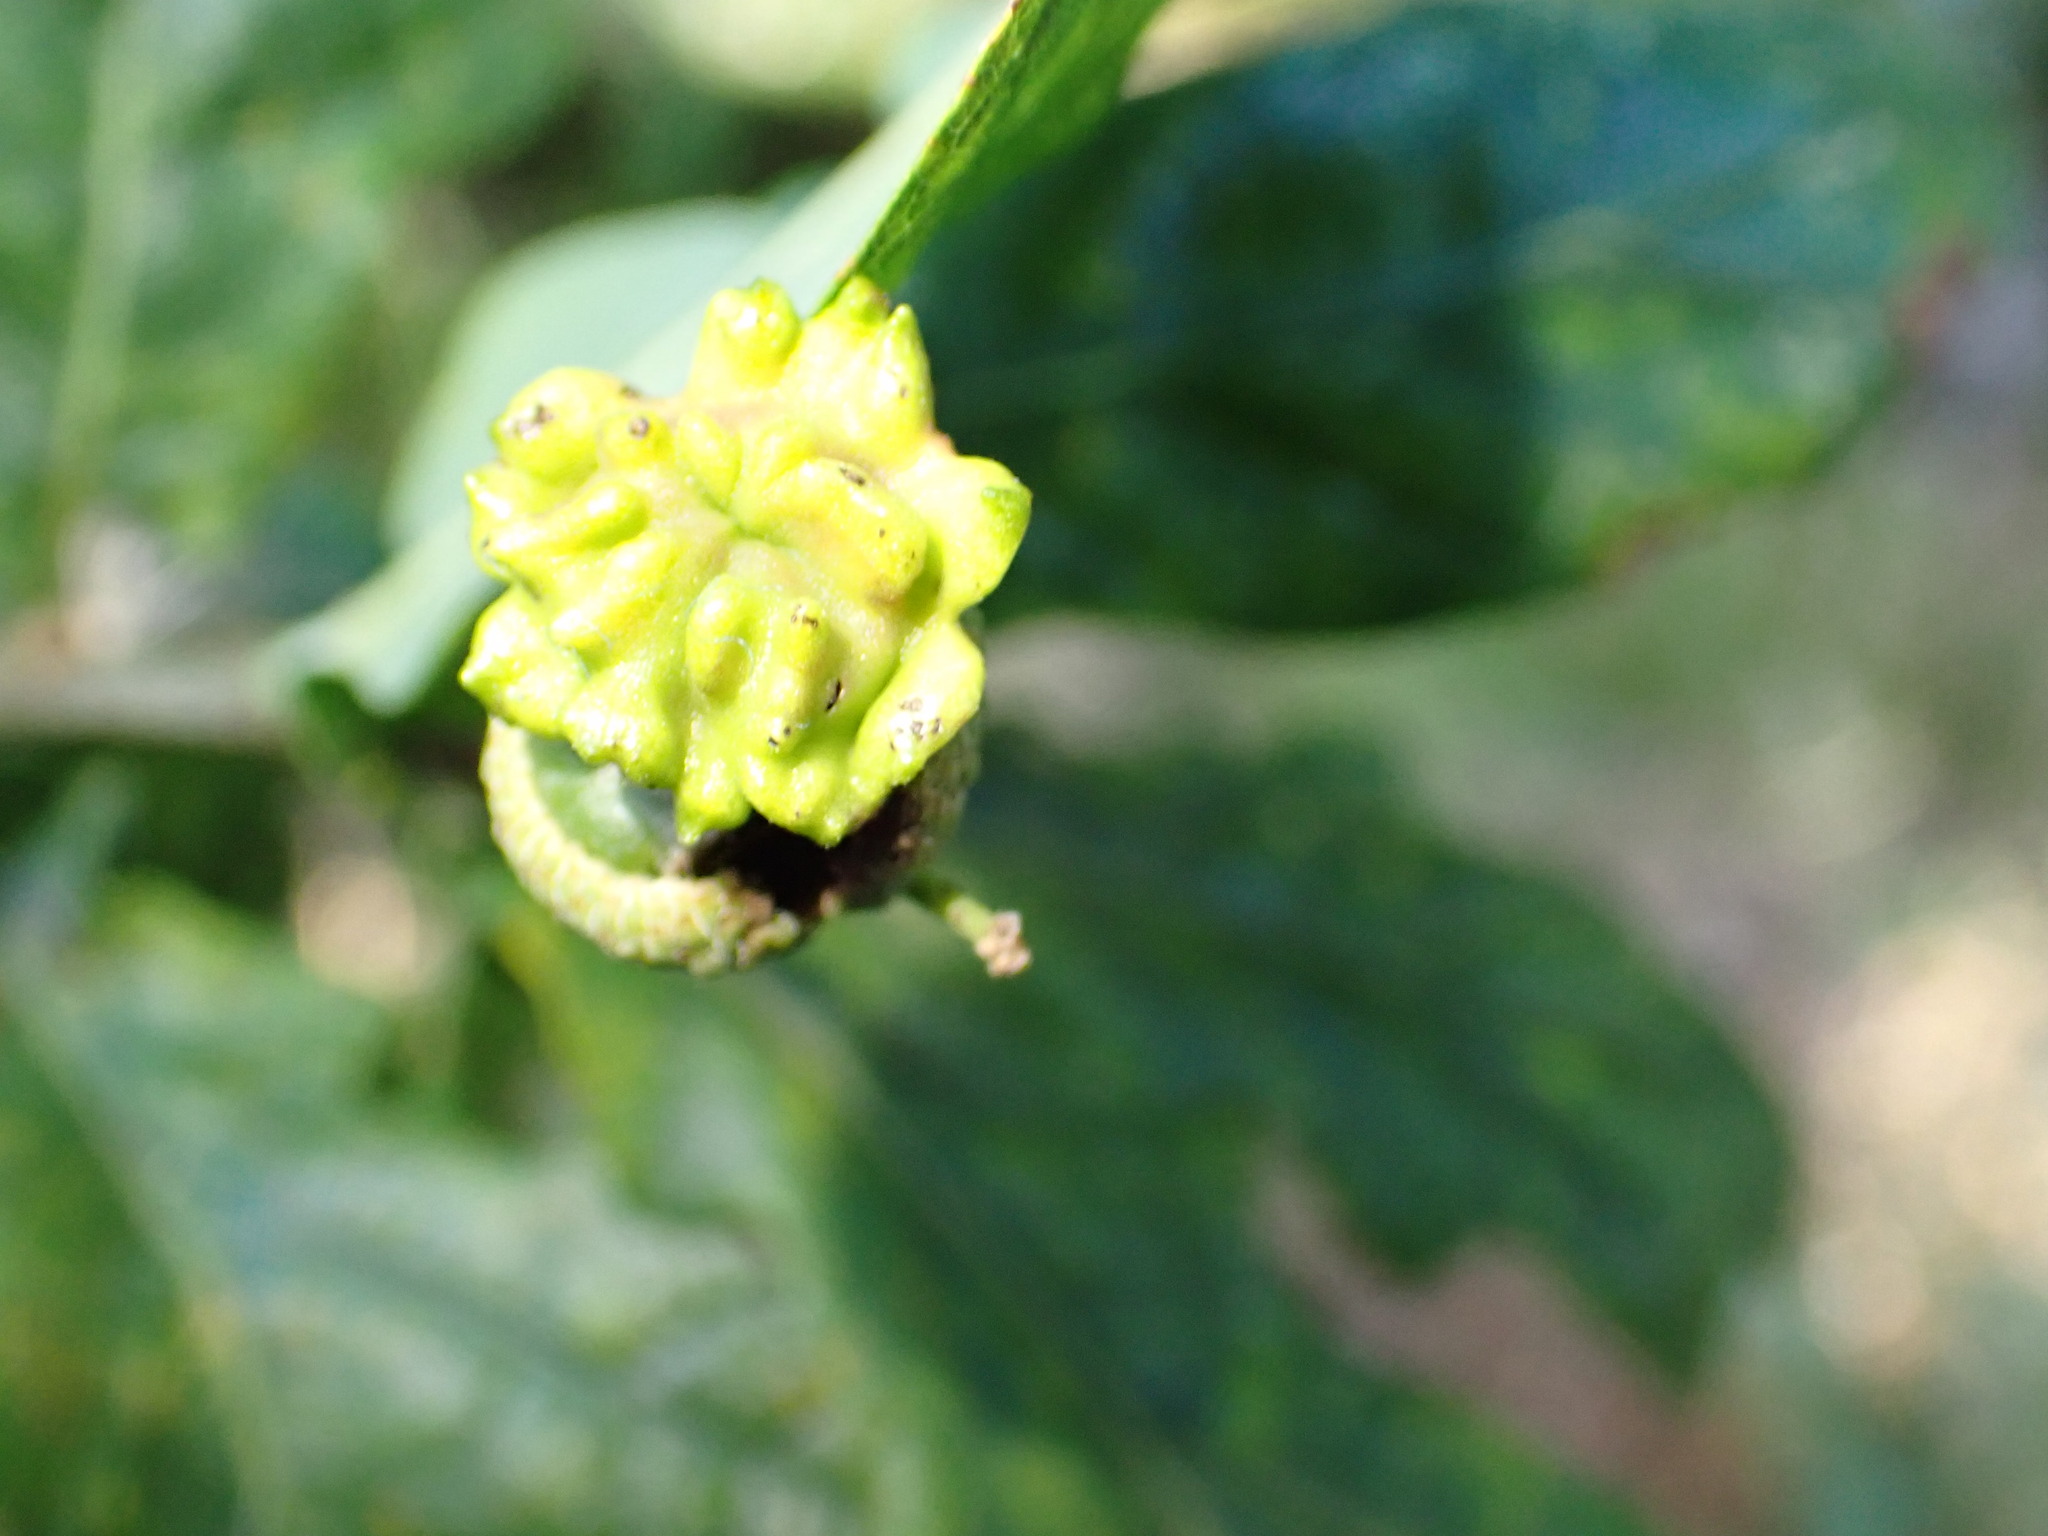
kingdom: Animalia
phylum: Arthropoda
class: Insecta
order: Hymenoptera
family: Cynipidae
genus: Andricus
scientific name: Andricus quercuscalicis
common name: Knopper gall
